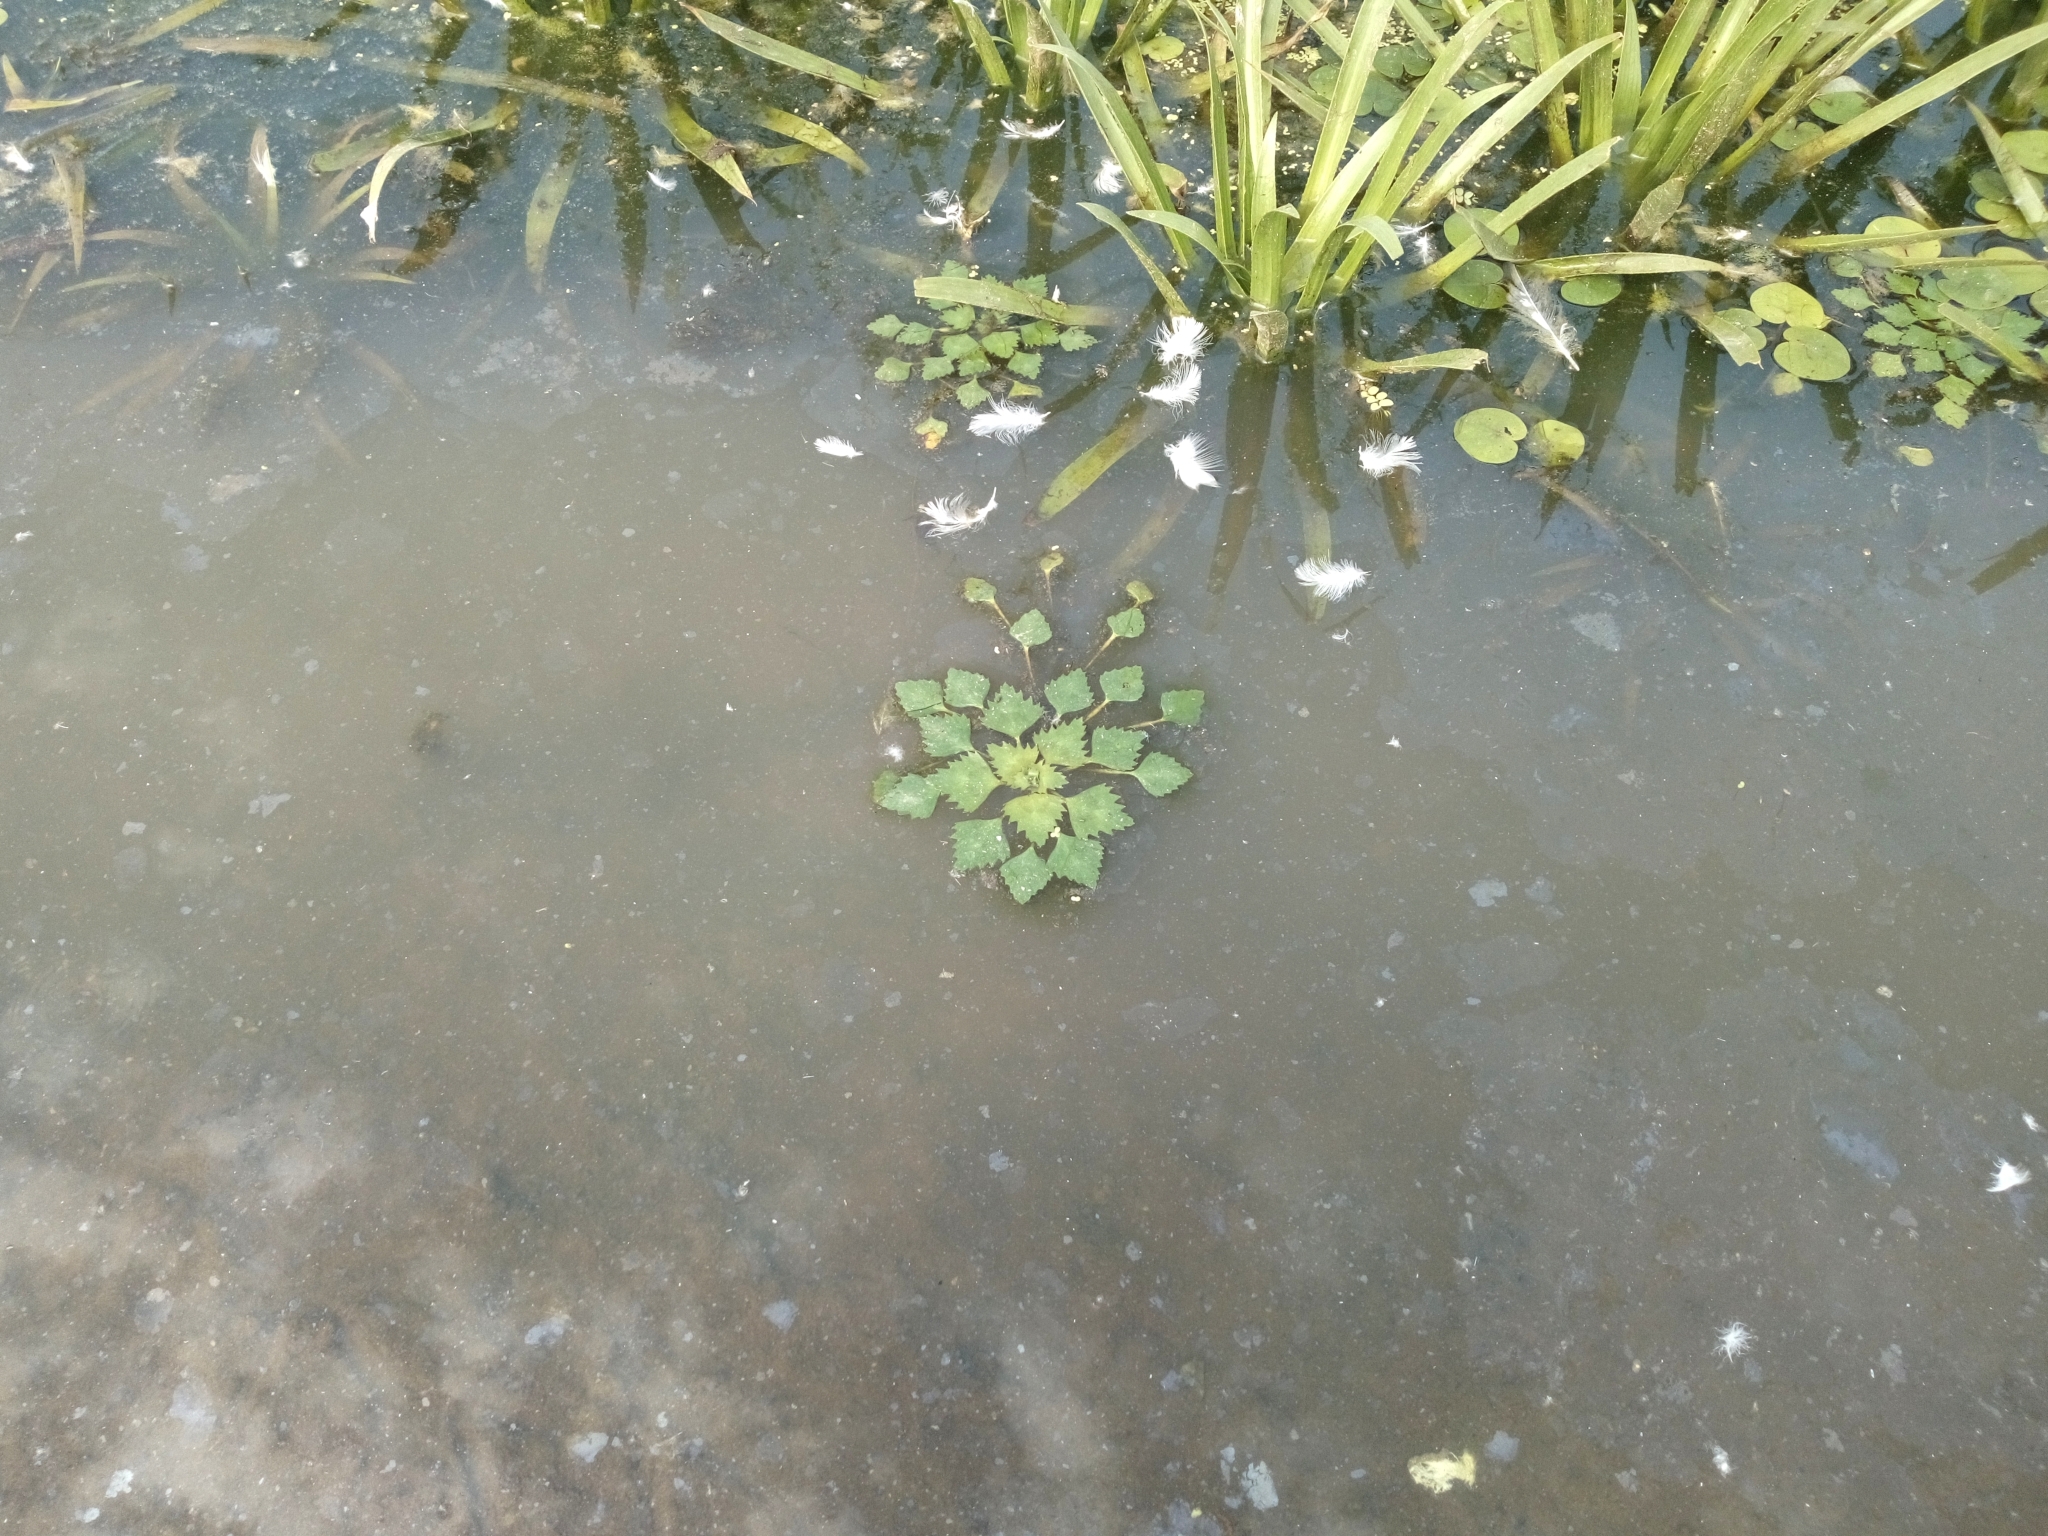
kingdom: Plantae
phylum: Tracheophyta
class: Magnoliopsida
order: Myrtales
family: Lythraceae
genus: Trapa
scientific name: Trapa natans
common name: Water chestnut
